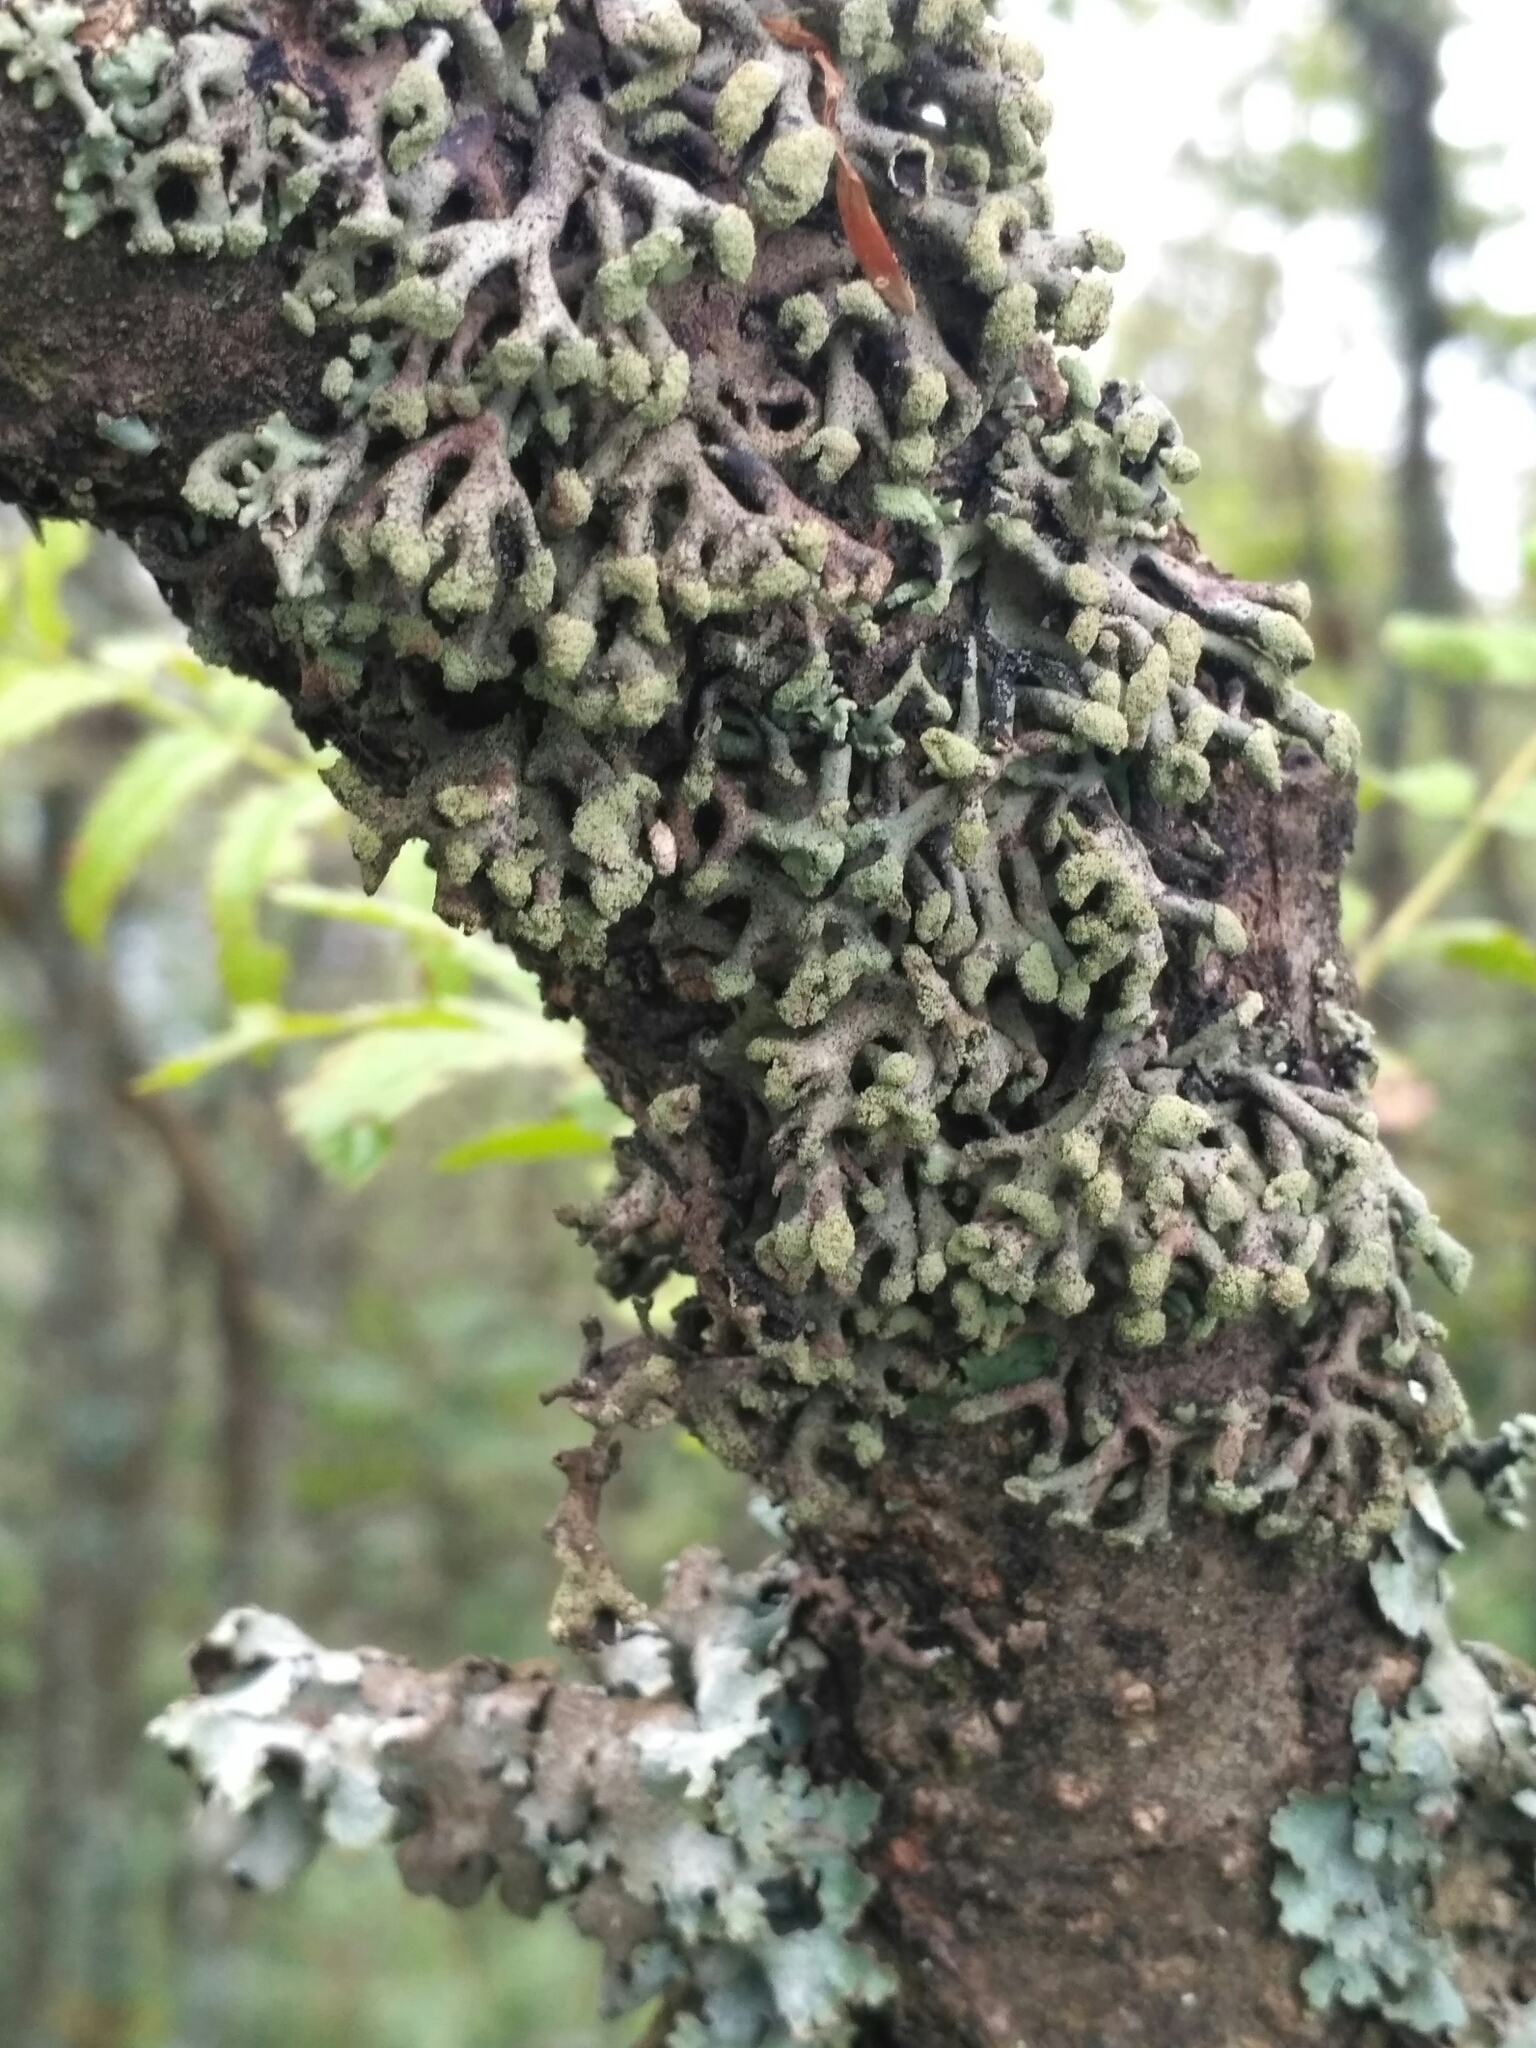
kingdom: Fungi
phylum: Ascomycota
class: Lecanoromycetes
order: Lecanorales
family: Parmeliaceae
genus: Hypogymnia
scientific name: Hypogymnia tubulosa
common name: Powder-headed tube lichen
